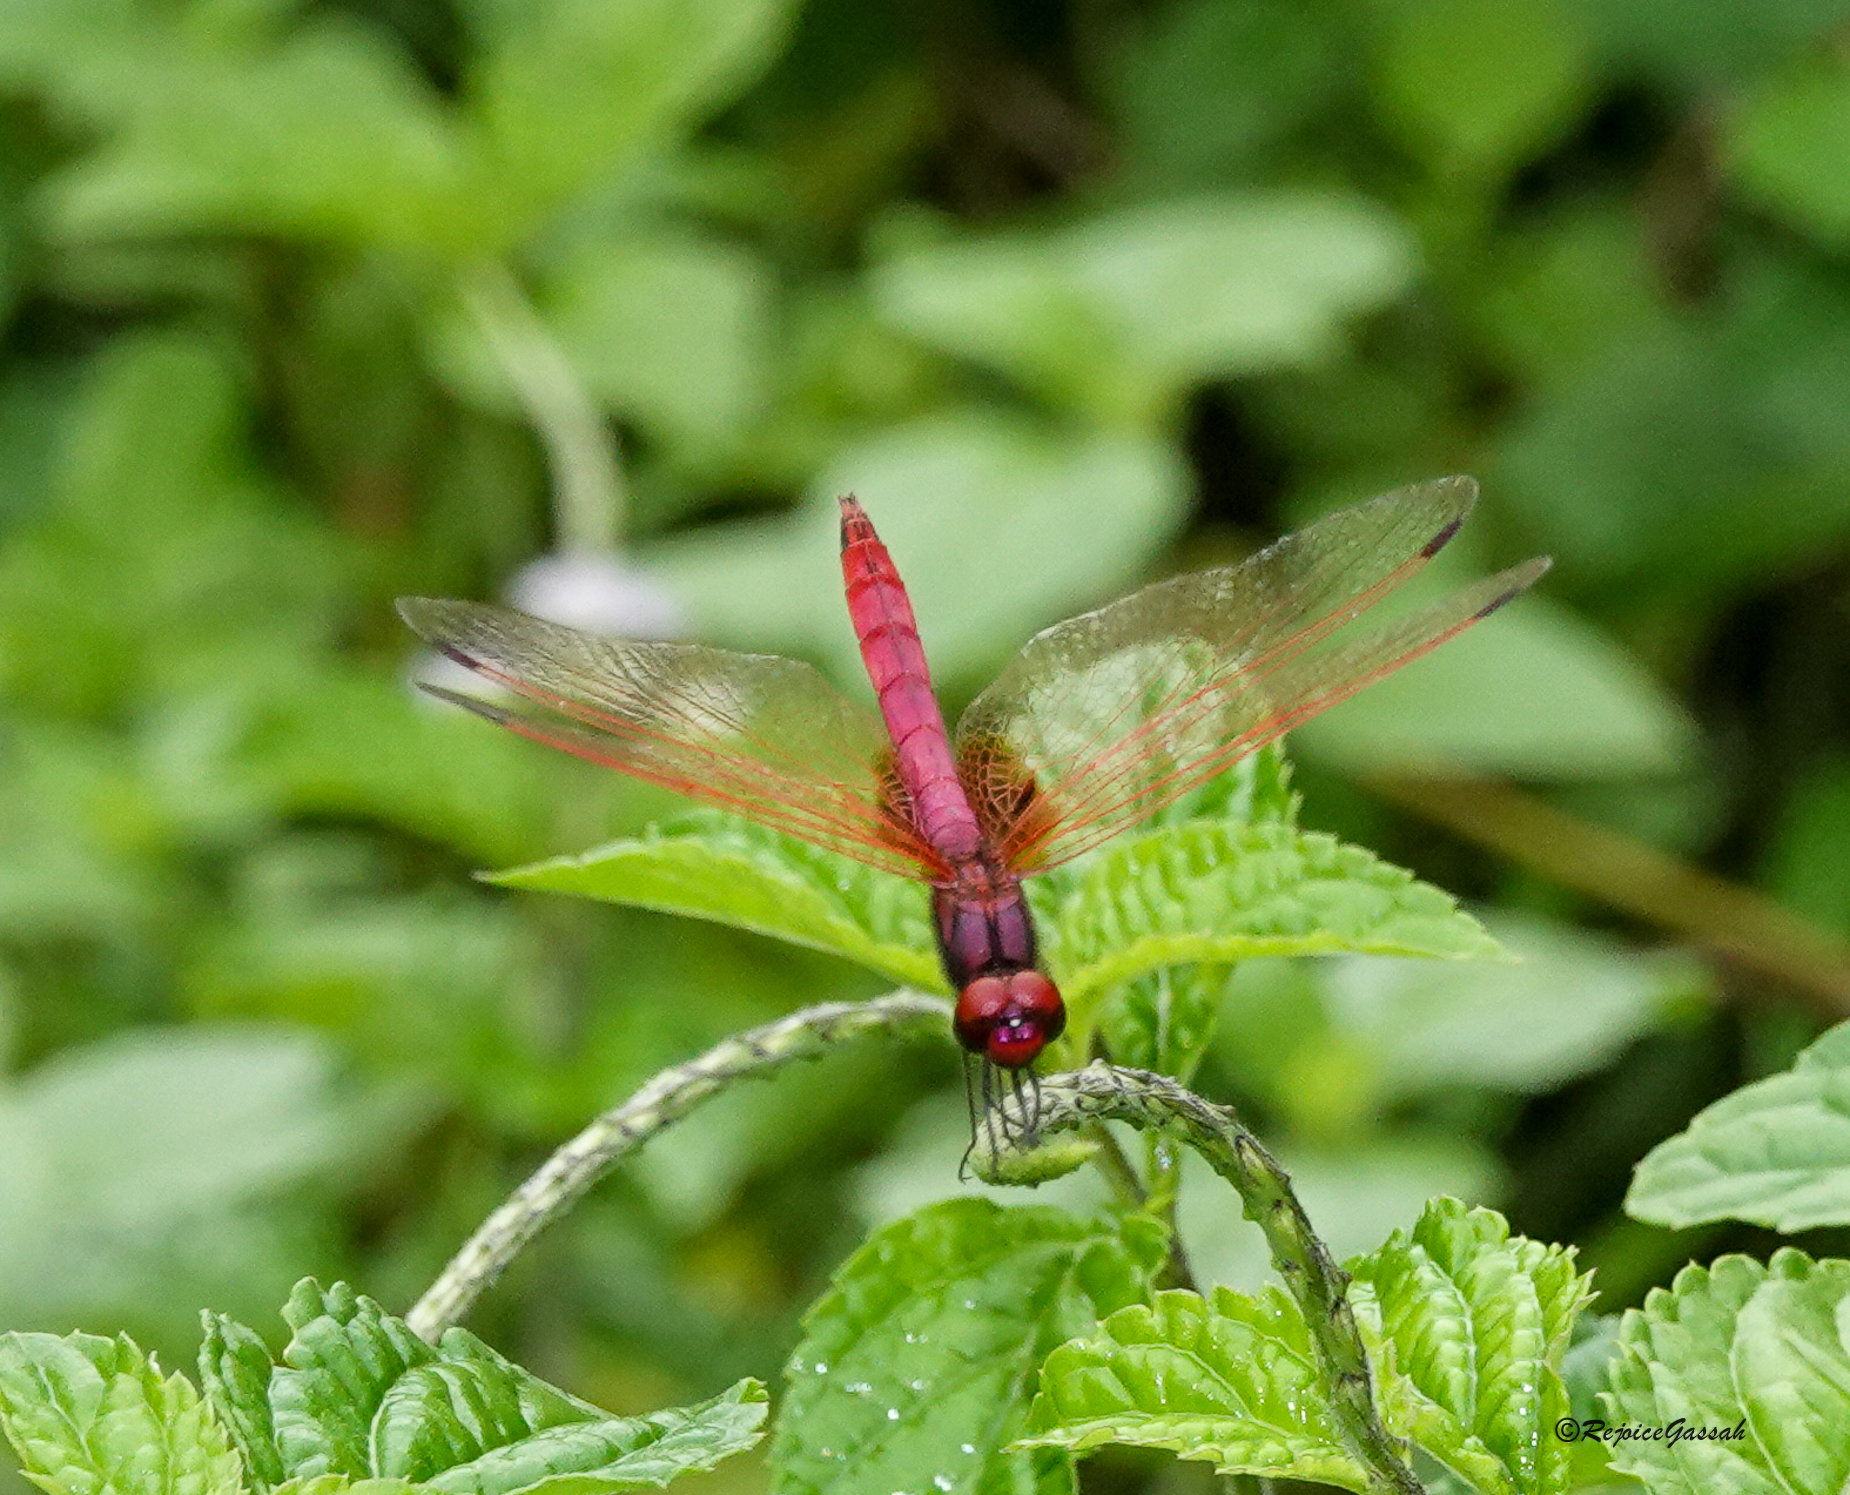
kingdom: Animalia
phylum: Arthropoda
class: Insecta
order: Odonata
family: Libellulidae
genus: Trithemis
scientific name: Trithemis aurora
